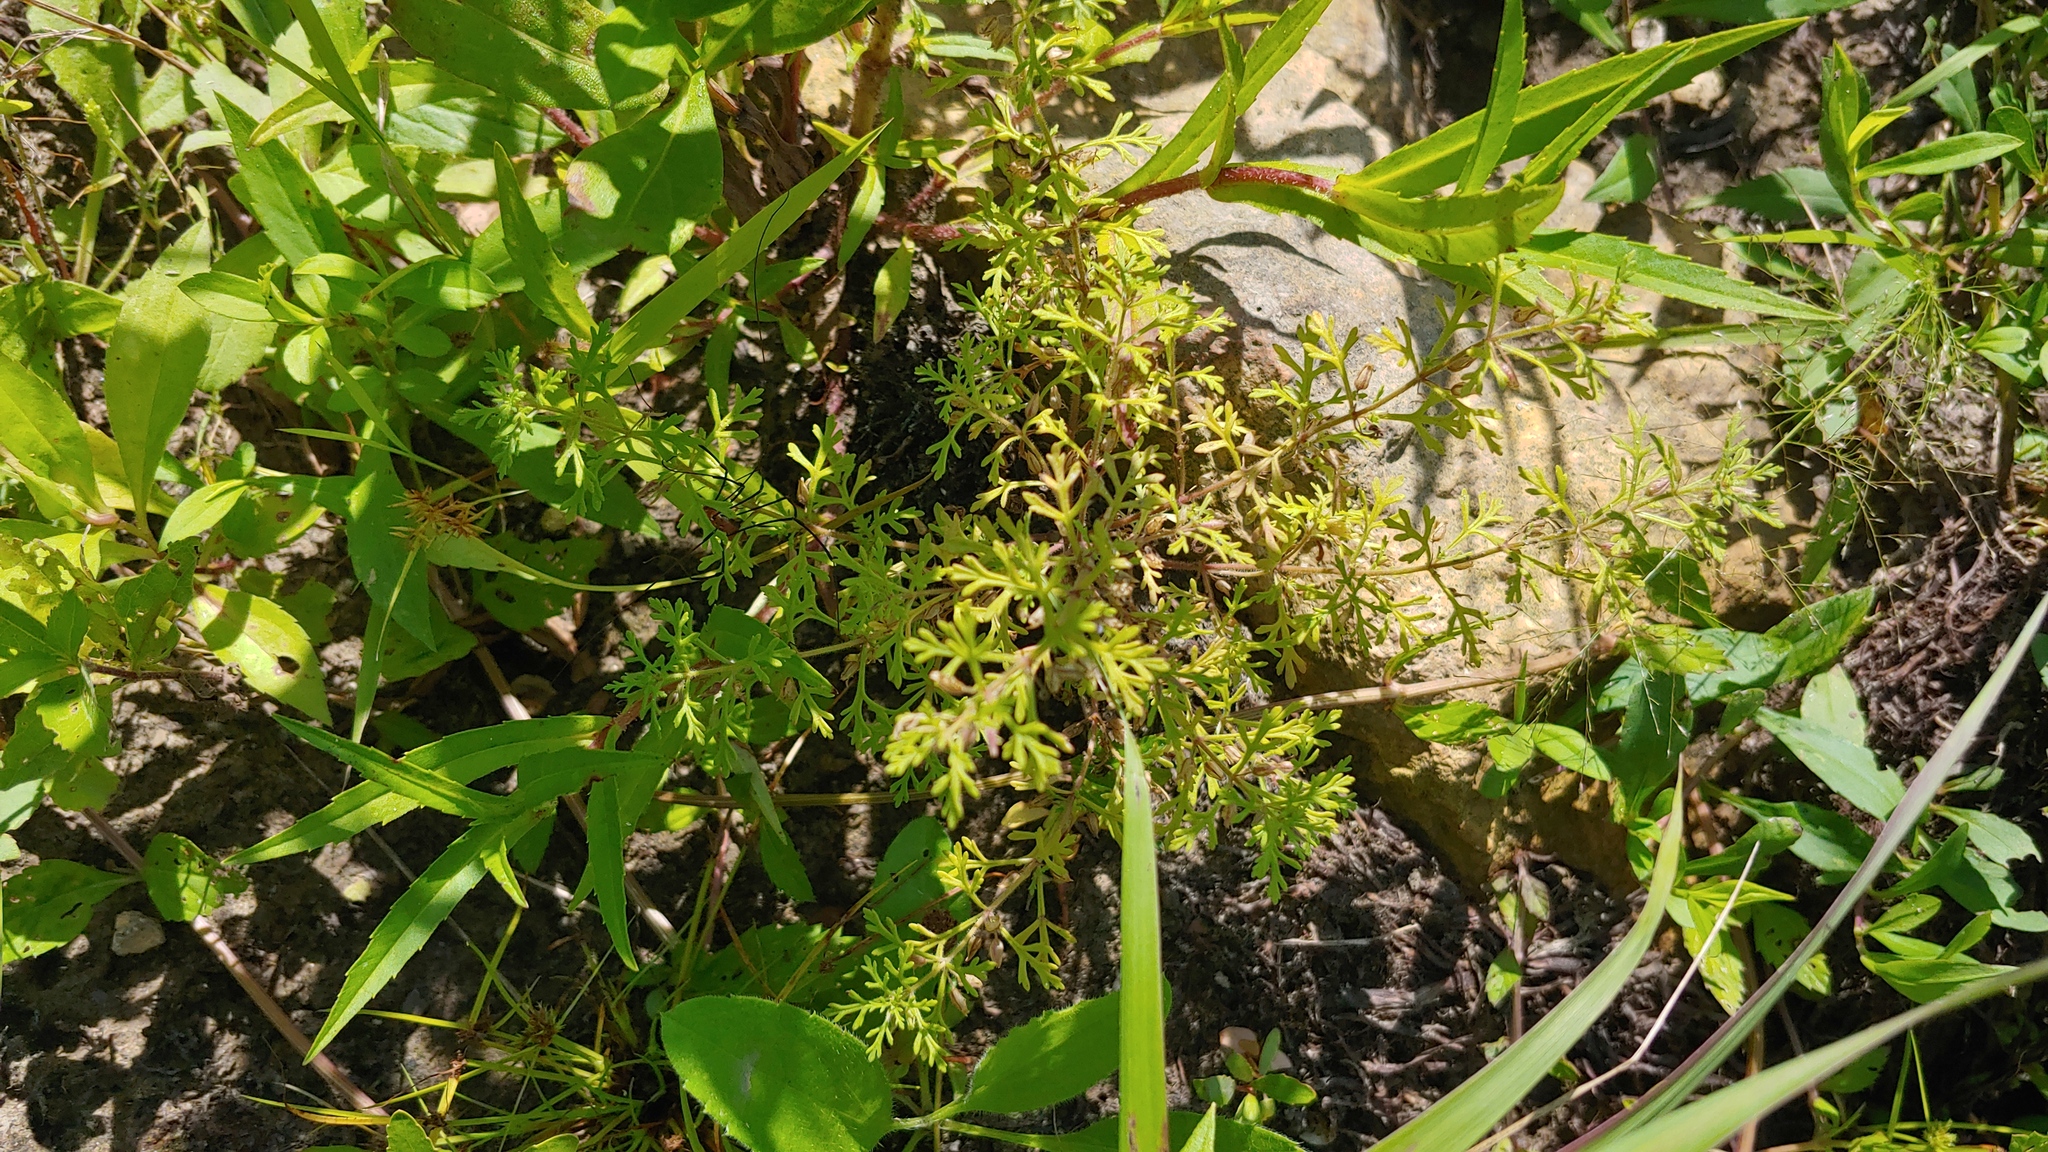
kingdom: Plantae
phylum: Tracheophyta
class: Magnoliopsida
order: Lamiales
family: Plantaginaceae
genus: Leucospora
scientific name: Leucospora multifida
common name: Narrow-leaf paleseed
